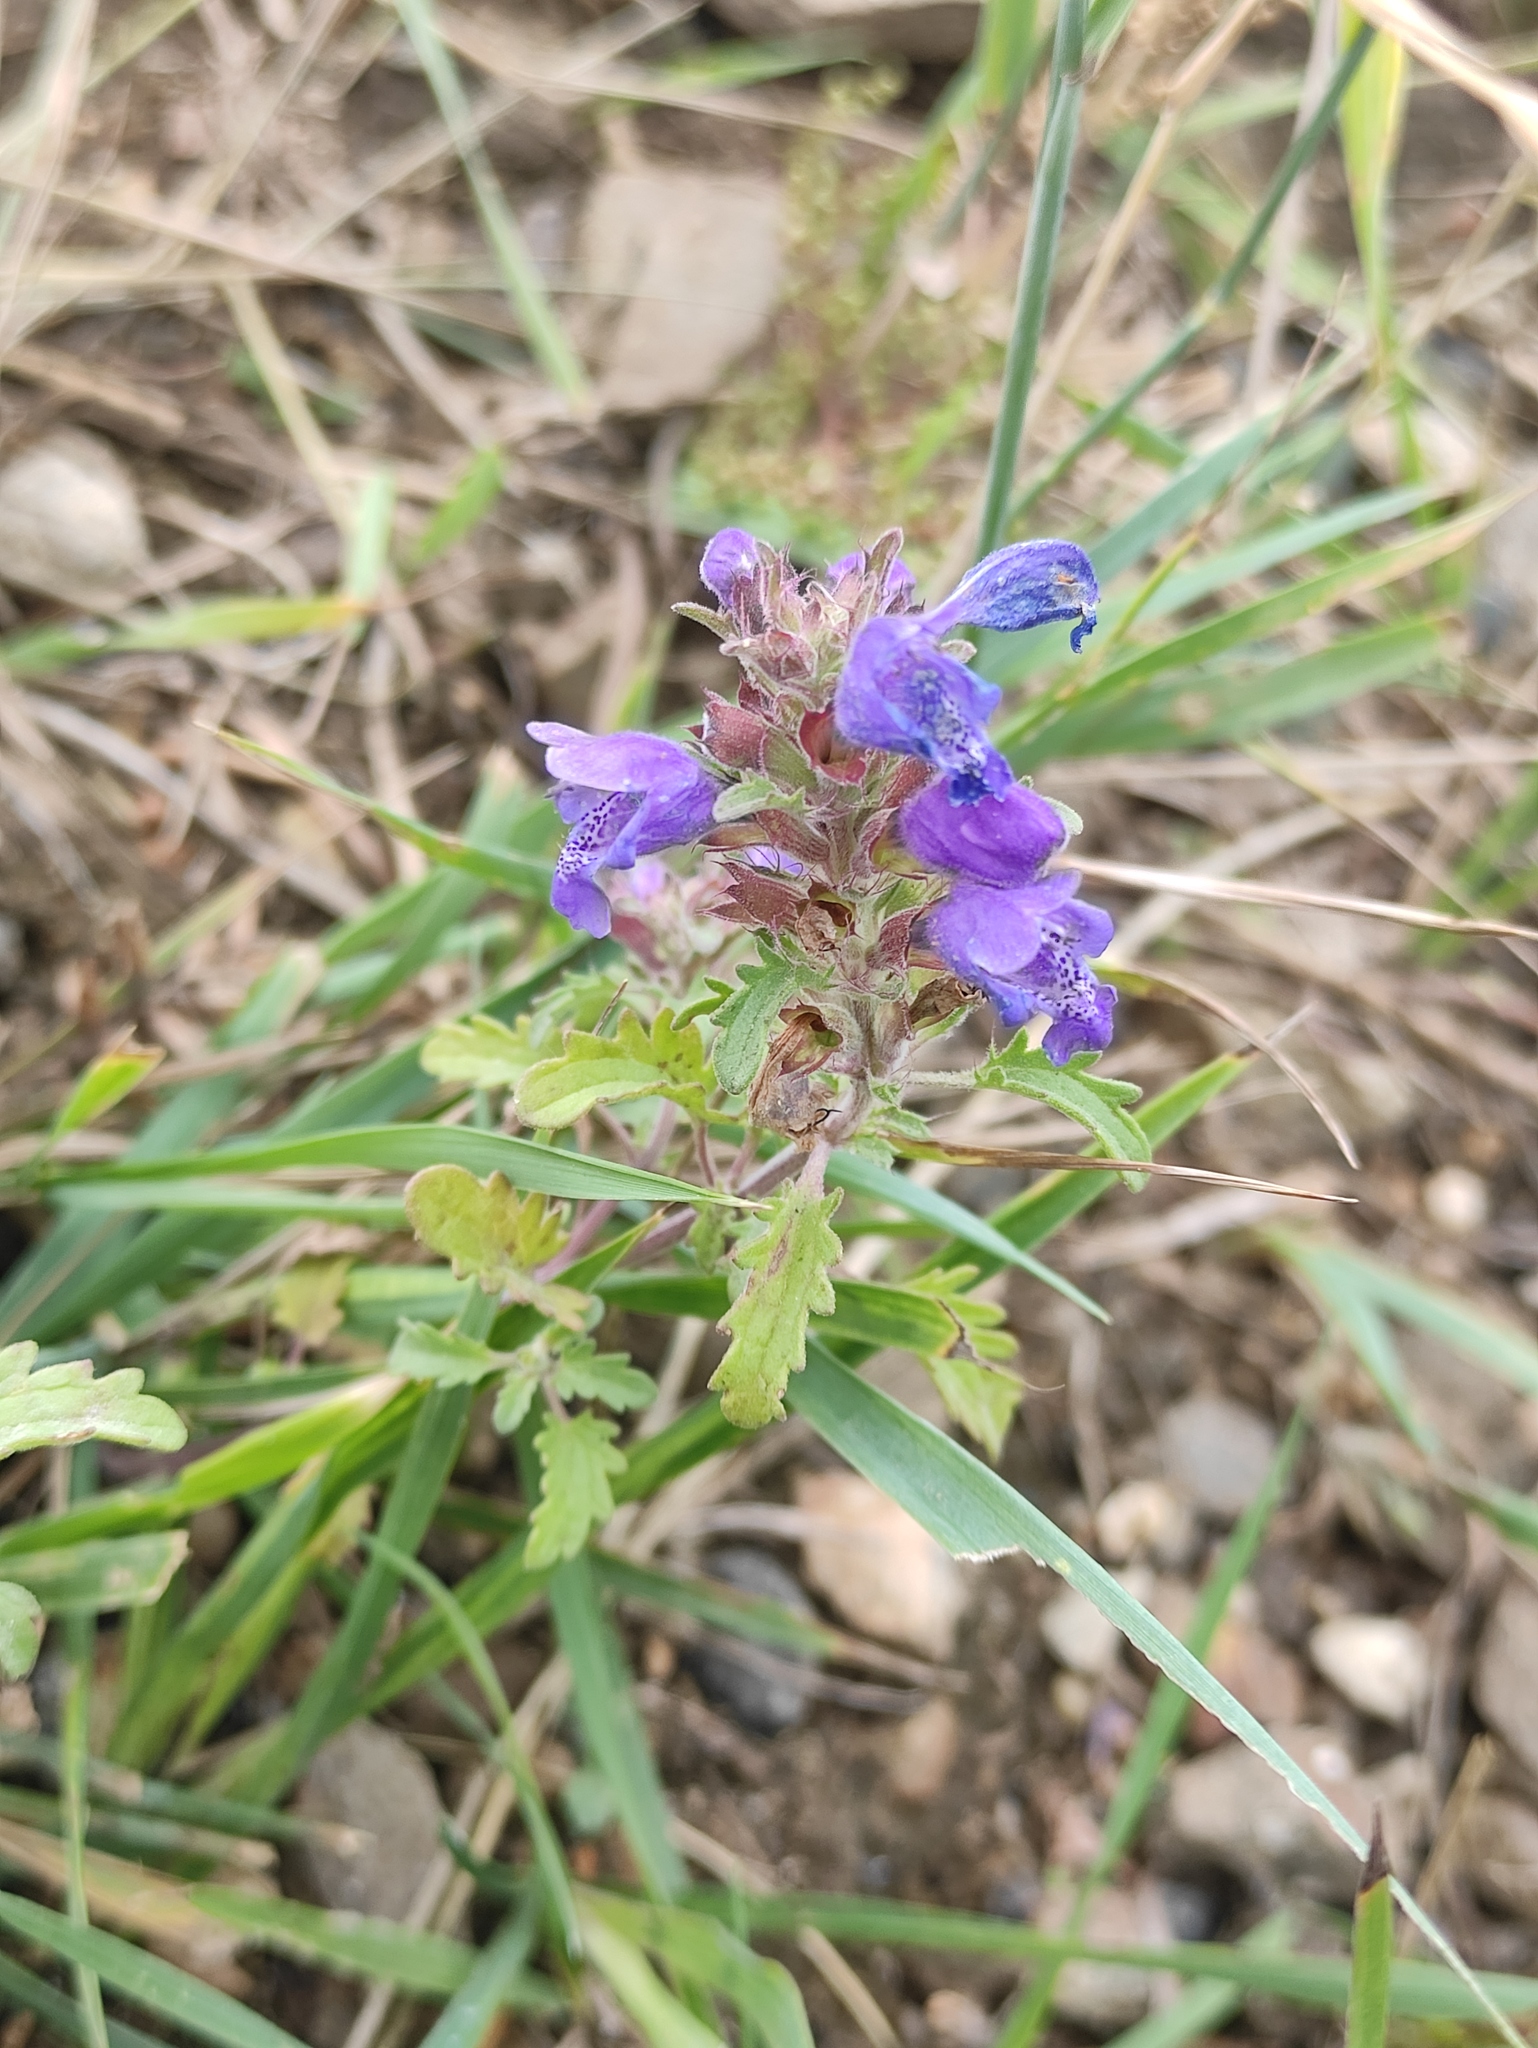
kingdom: Plantae
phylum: Tracheophyta
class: Magnoliopsida
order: Lamiales
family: Lamiaceae
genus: Dracocephalum
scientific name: Dracocephalum olchonense
